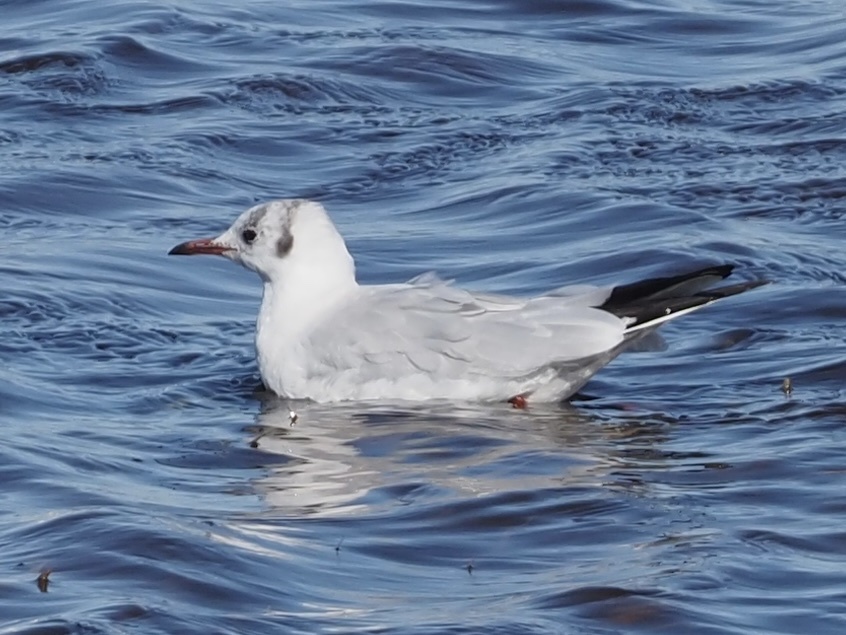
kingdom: Animalia
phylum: Chordata
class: Aves
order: Charadriiformes
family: Laridae
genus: Chroicocephalus
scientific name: Chroicocephalus ridibundus
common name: Black-headed gull
